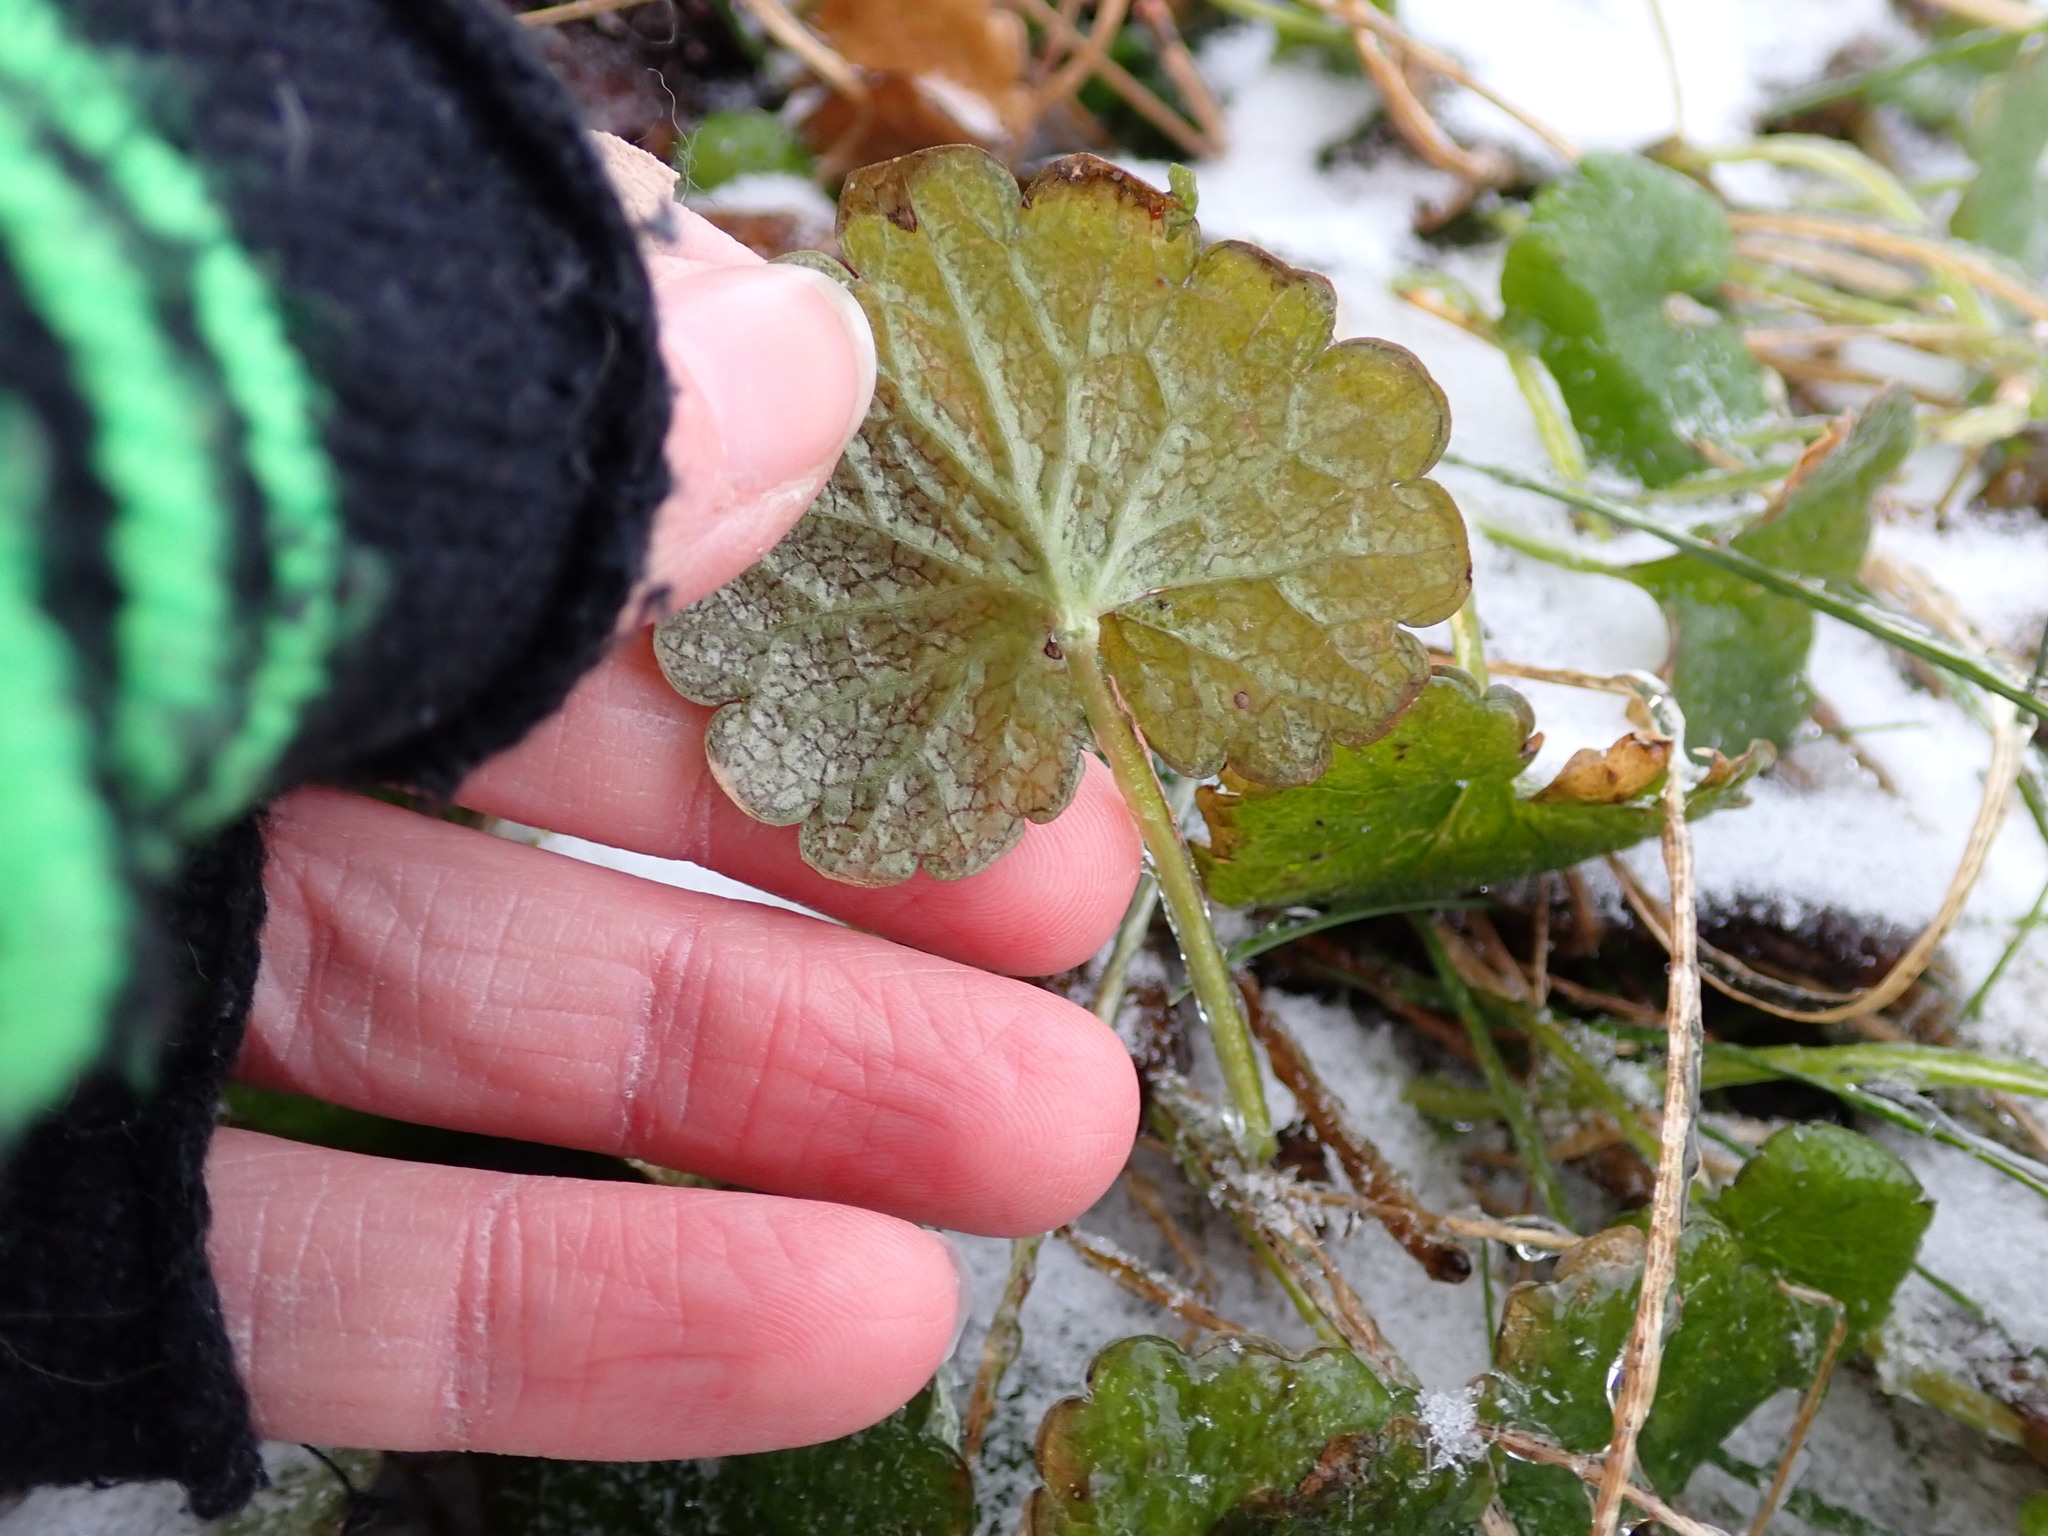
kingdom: Plantae
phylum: Tracheophyta
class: Magnoliopsida
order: Lamiales
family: Lamiaceae
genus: Glechoma
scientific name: Glechoma hederacea
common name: Ground ivy
